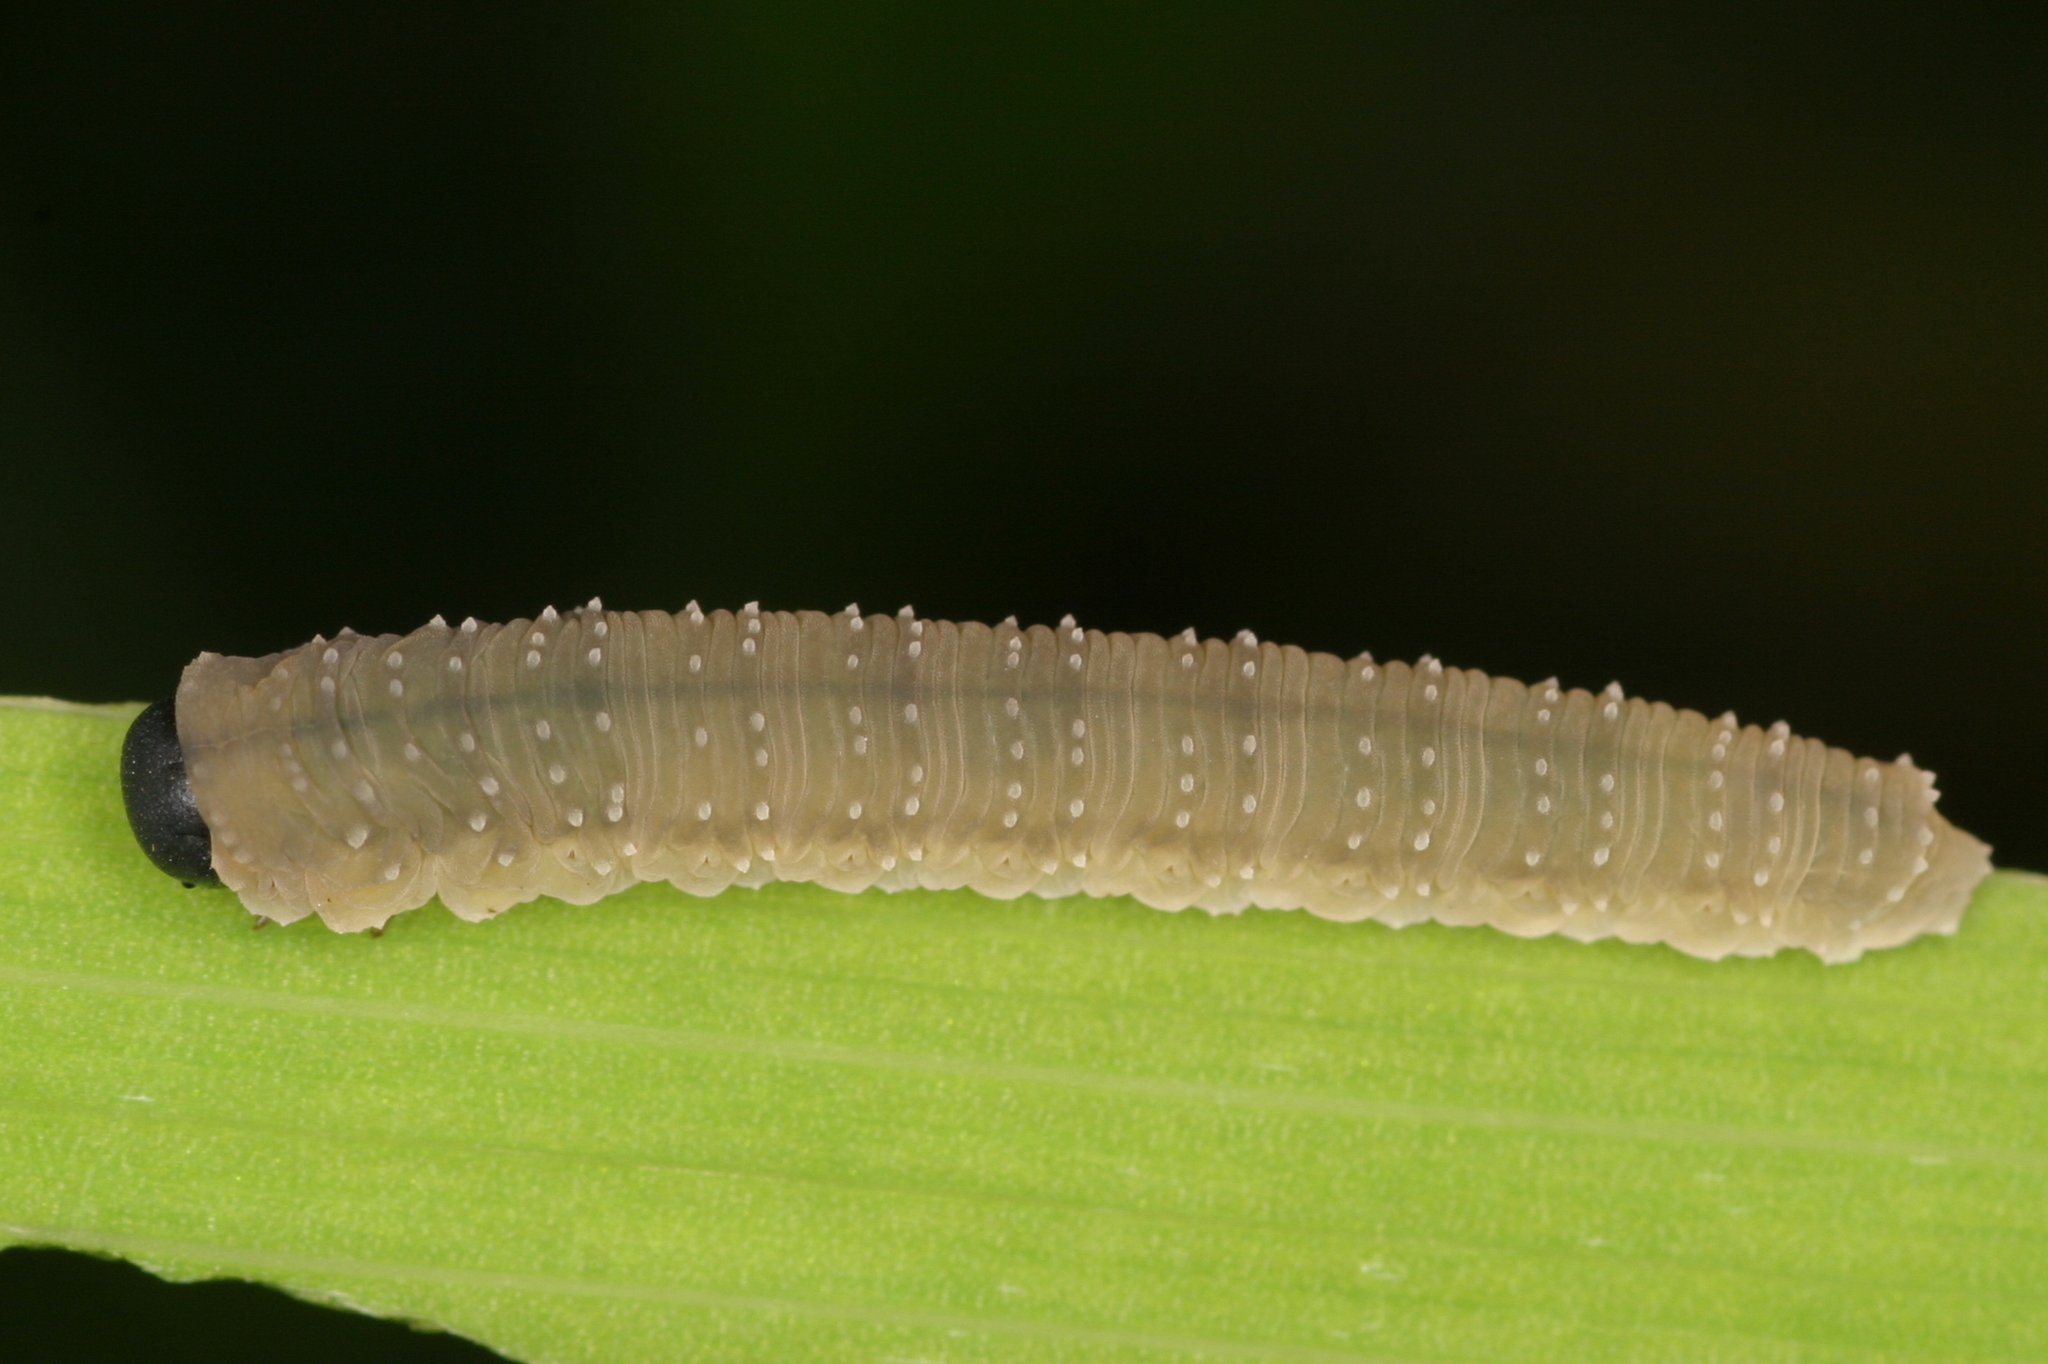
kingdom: Animalia
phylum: Arthropoda
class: Insecta
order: Hymenoptera
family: Tenthredinidae
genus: Rhadinoceraea
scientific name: Rhadinoceraea micans
